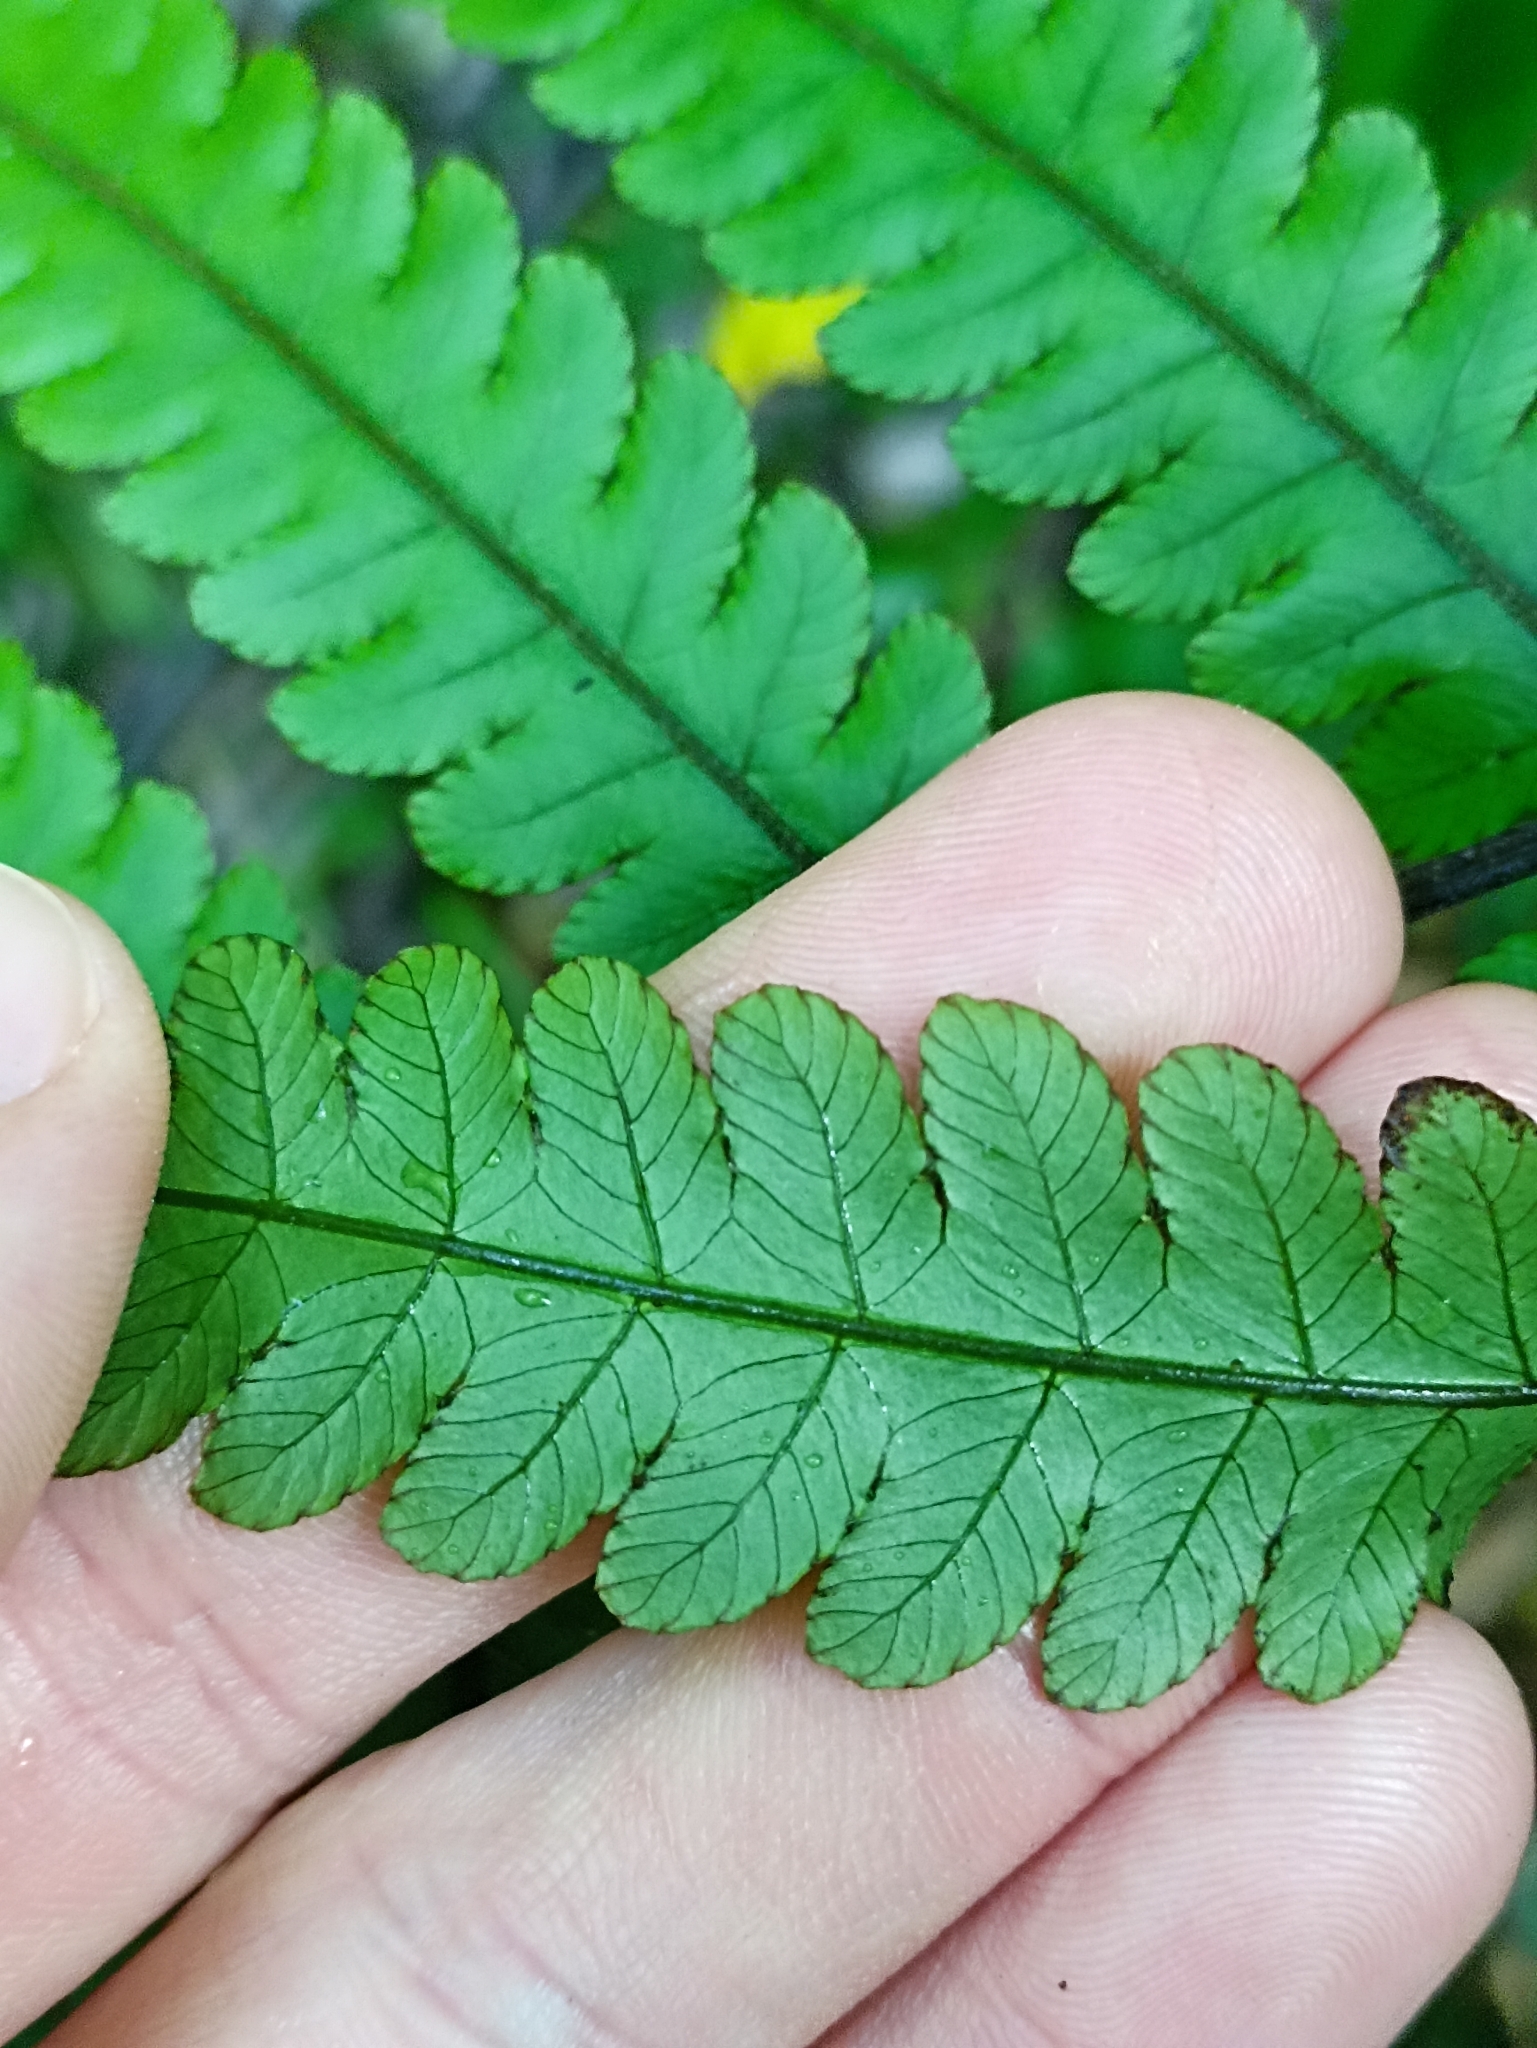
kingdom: Plantae
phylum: Tracheophyta
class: Polypodiopsida
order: Polypodiales
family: Thelypteridaceae
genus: Pakau
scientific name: Pakau pennigera
